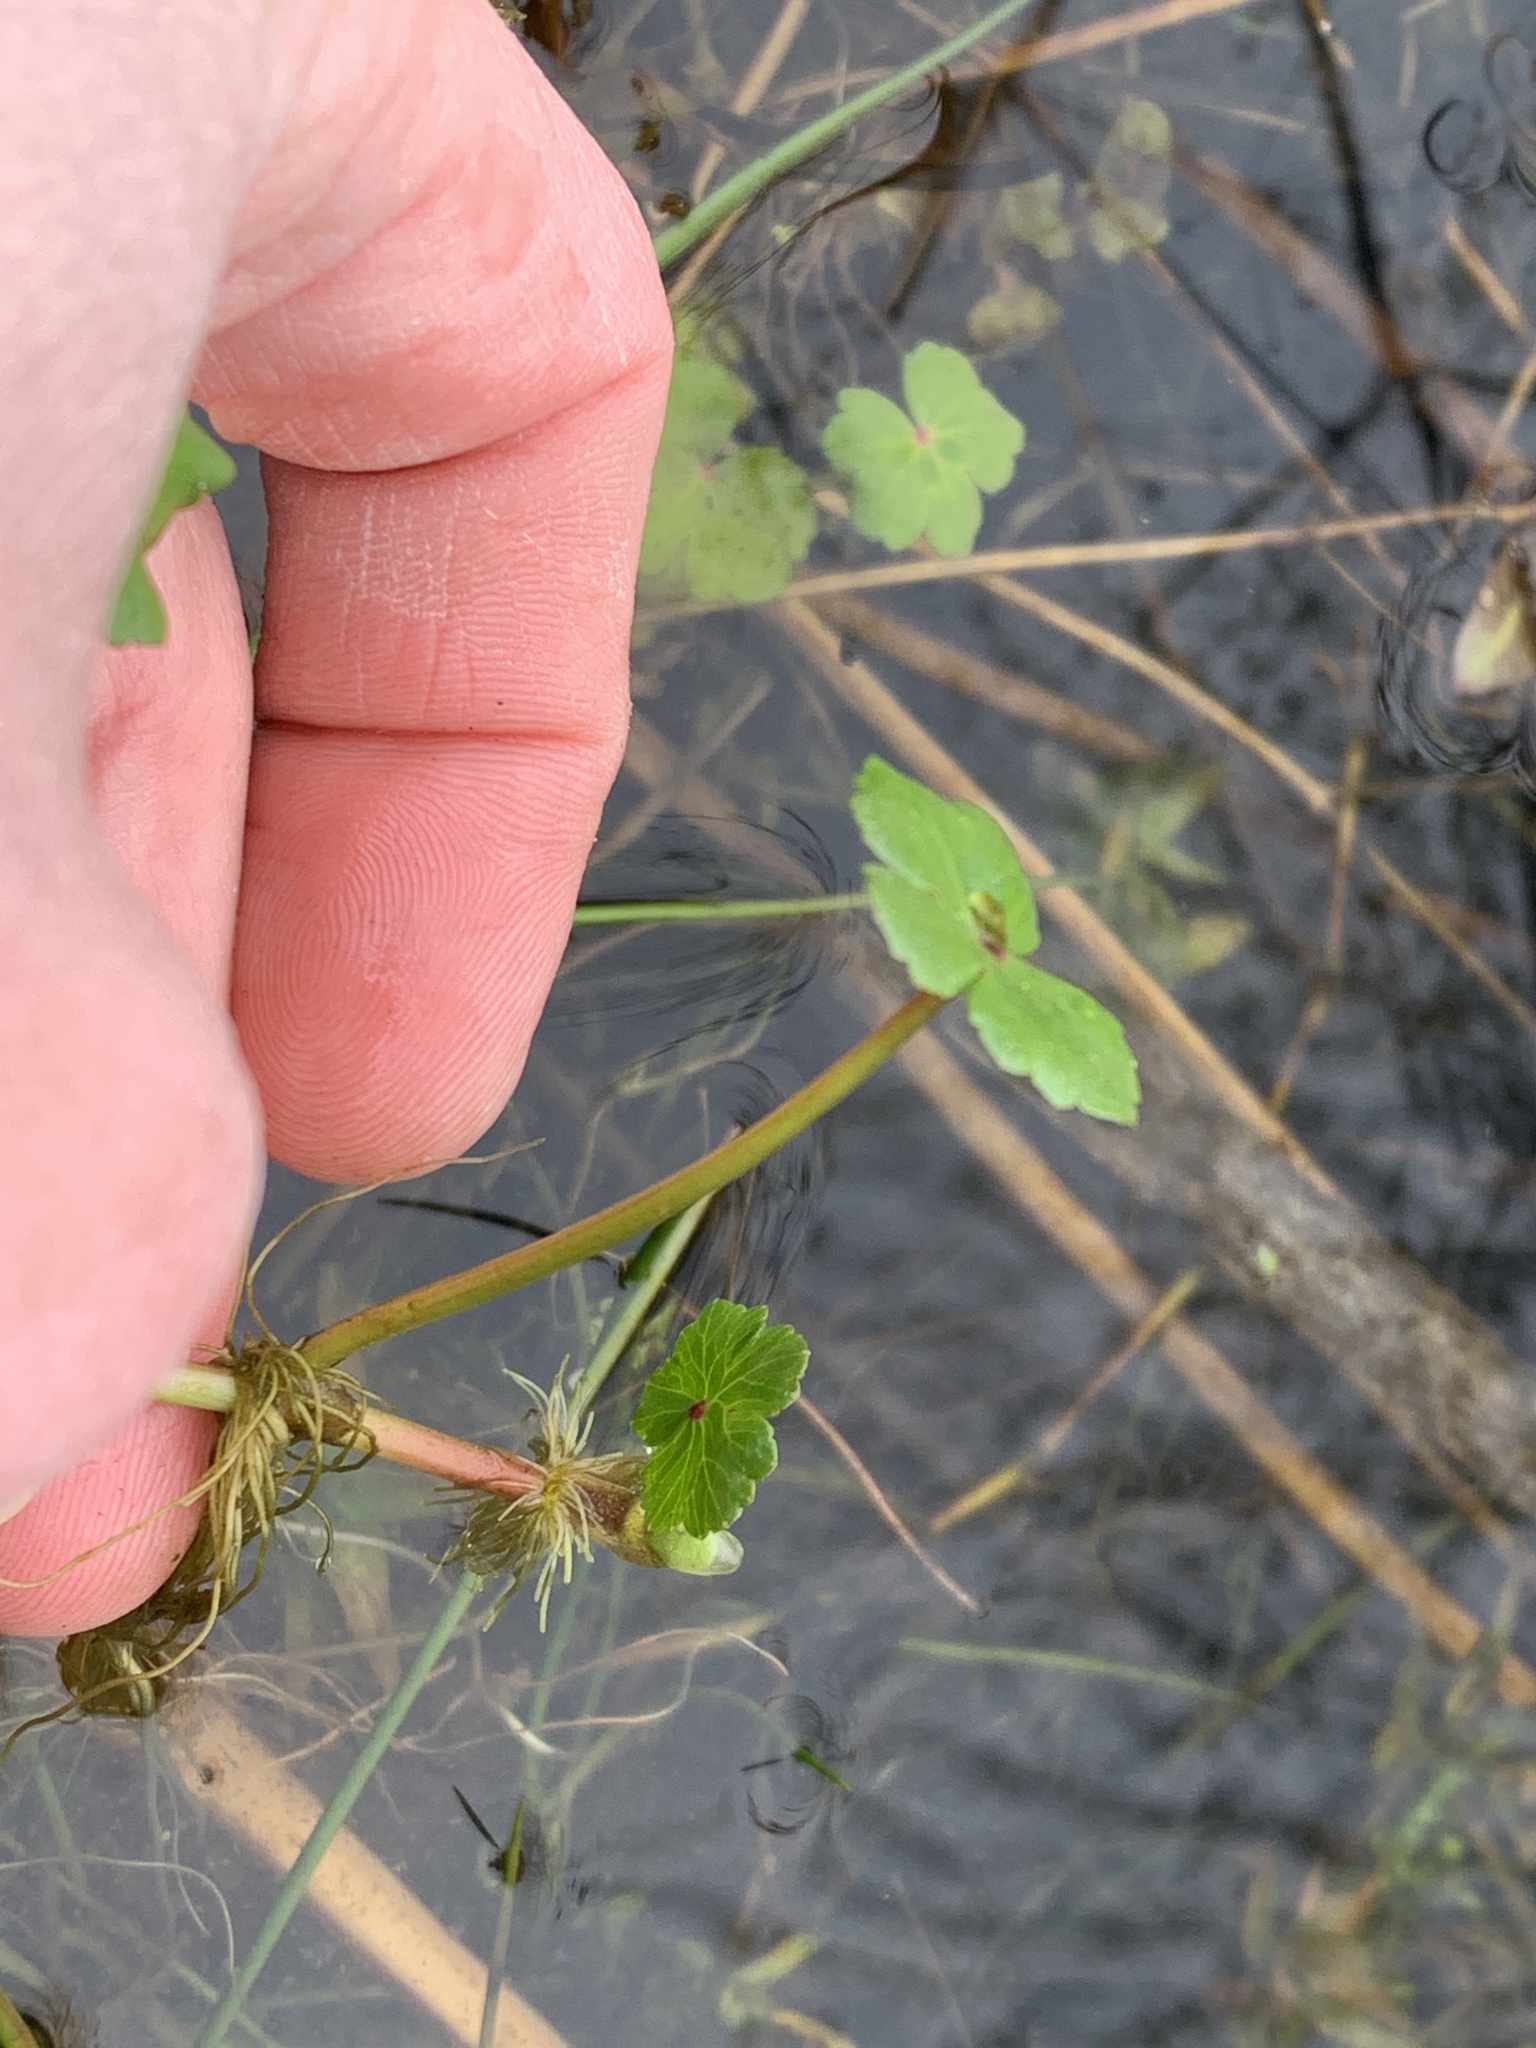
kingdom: Plantae
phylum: Tracheophyta
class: Magnoliopsida
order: Apiales
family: Araliaceae
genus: Hydrocotyle
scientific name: Hydrocotyle ranunculoides
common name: Floating pennywort
